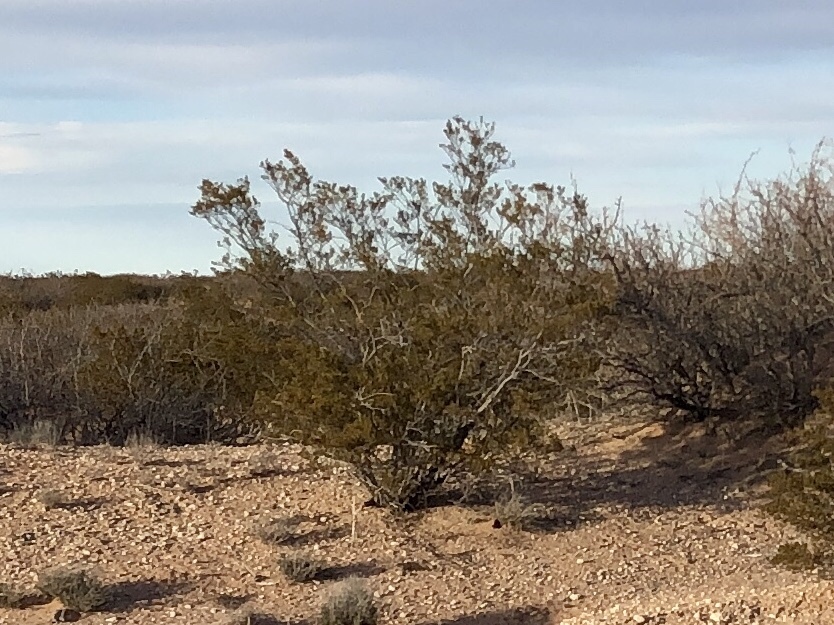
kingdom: Plantae
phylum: Tracheophyta
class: Magnoliopsida
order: Zygophyllales
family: Zygophyllaceae
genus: Larrea
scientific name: Larrea tridentata
